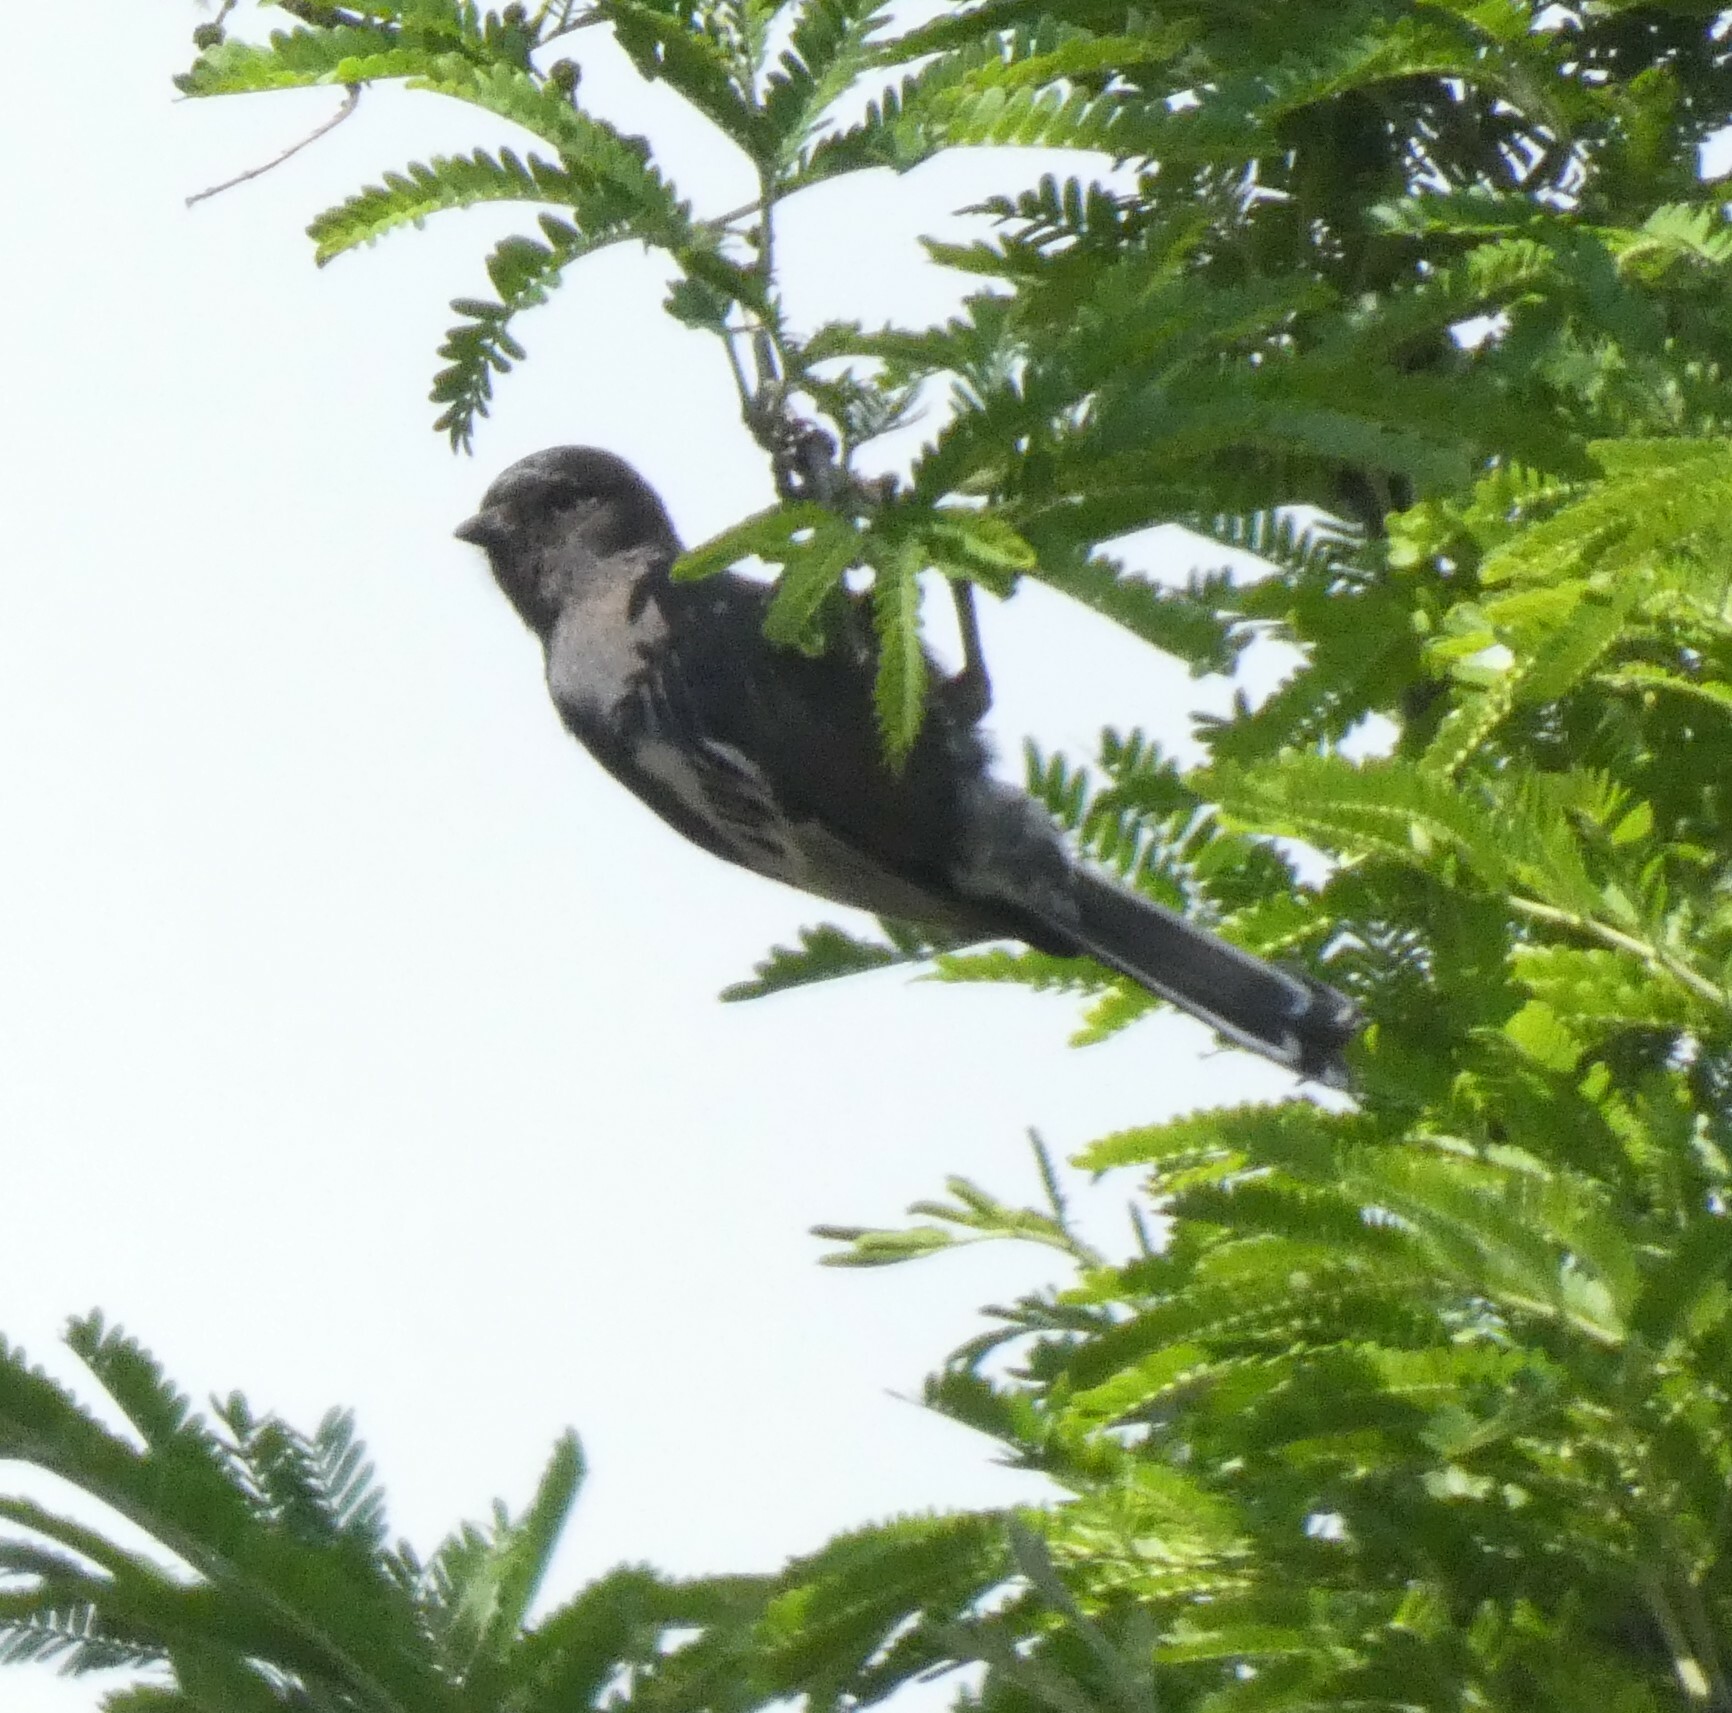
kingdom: Animalia
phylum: Chordata
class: Aves
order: Passeriformes
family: Paridae
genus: Parus
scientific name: Parus niger
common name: Southern black tit
